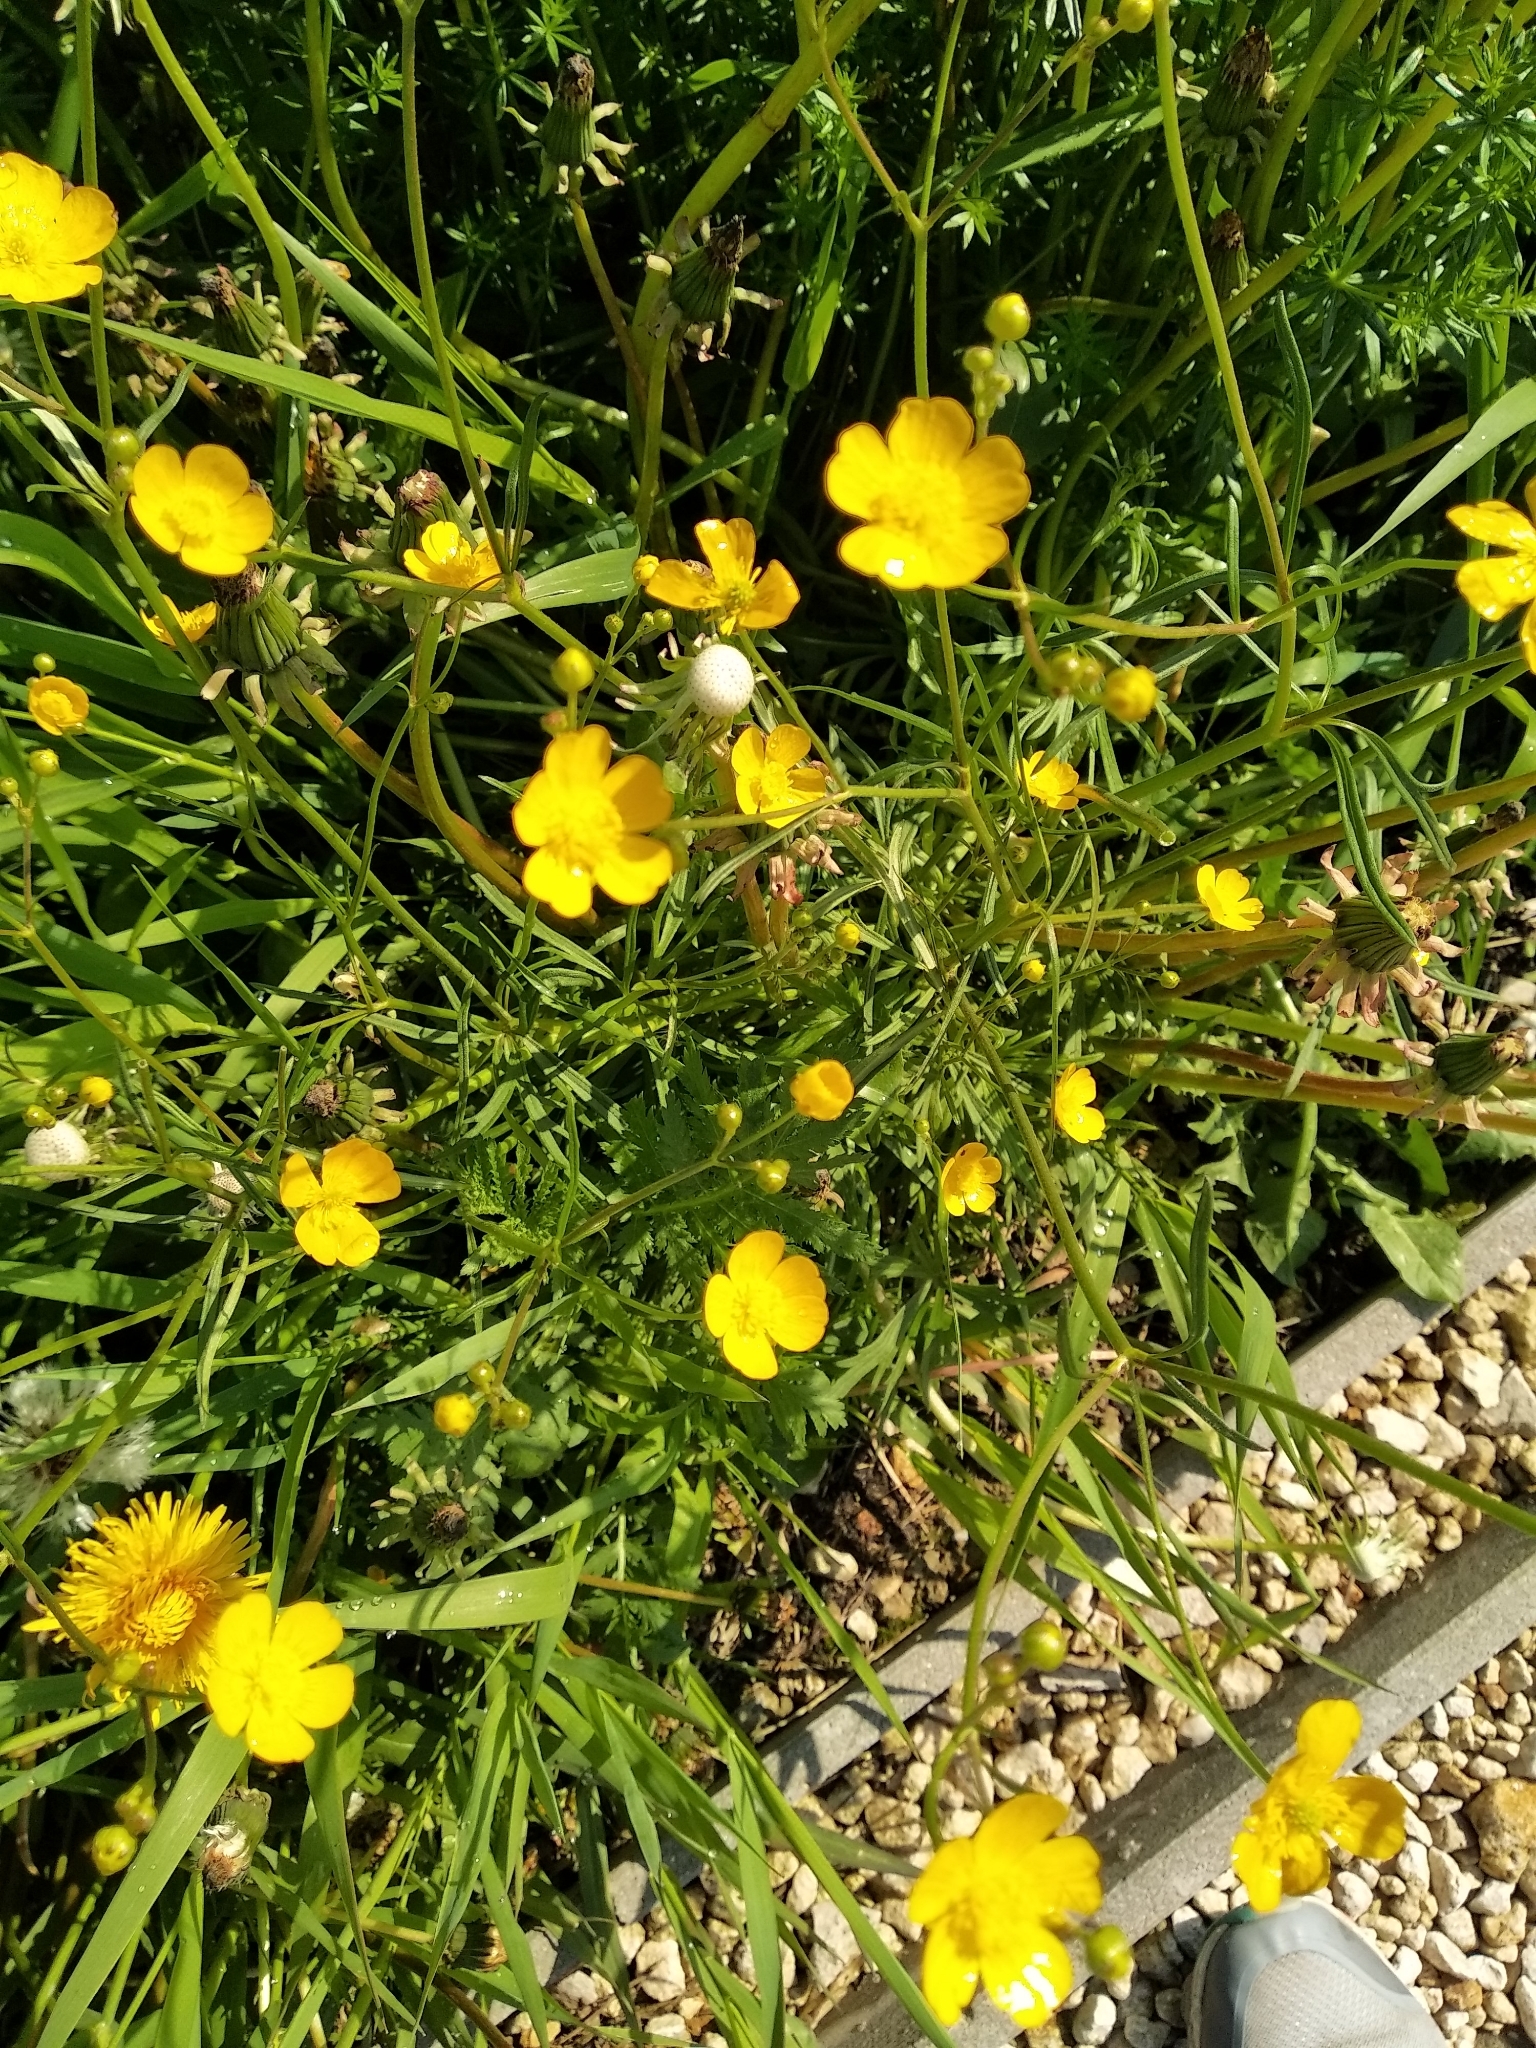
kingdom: Plantae
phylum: Tracheophyta
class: Magnoliopsida
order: Ranunculales
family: Ranunculaceae
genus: Ranunculus
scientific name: Ranunculus acris
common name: Meadow buttercup
